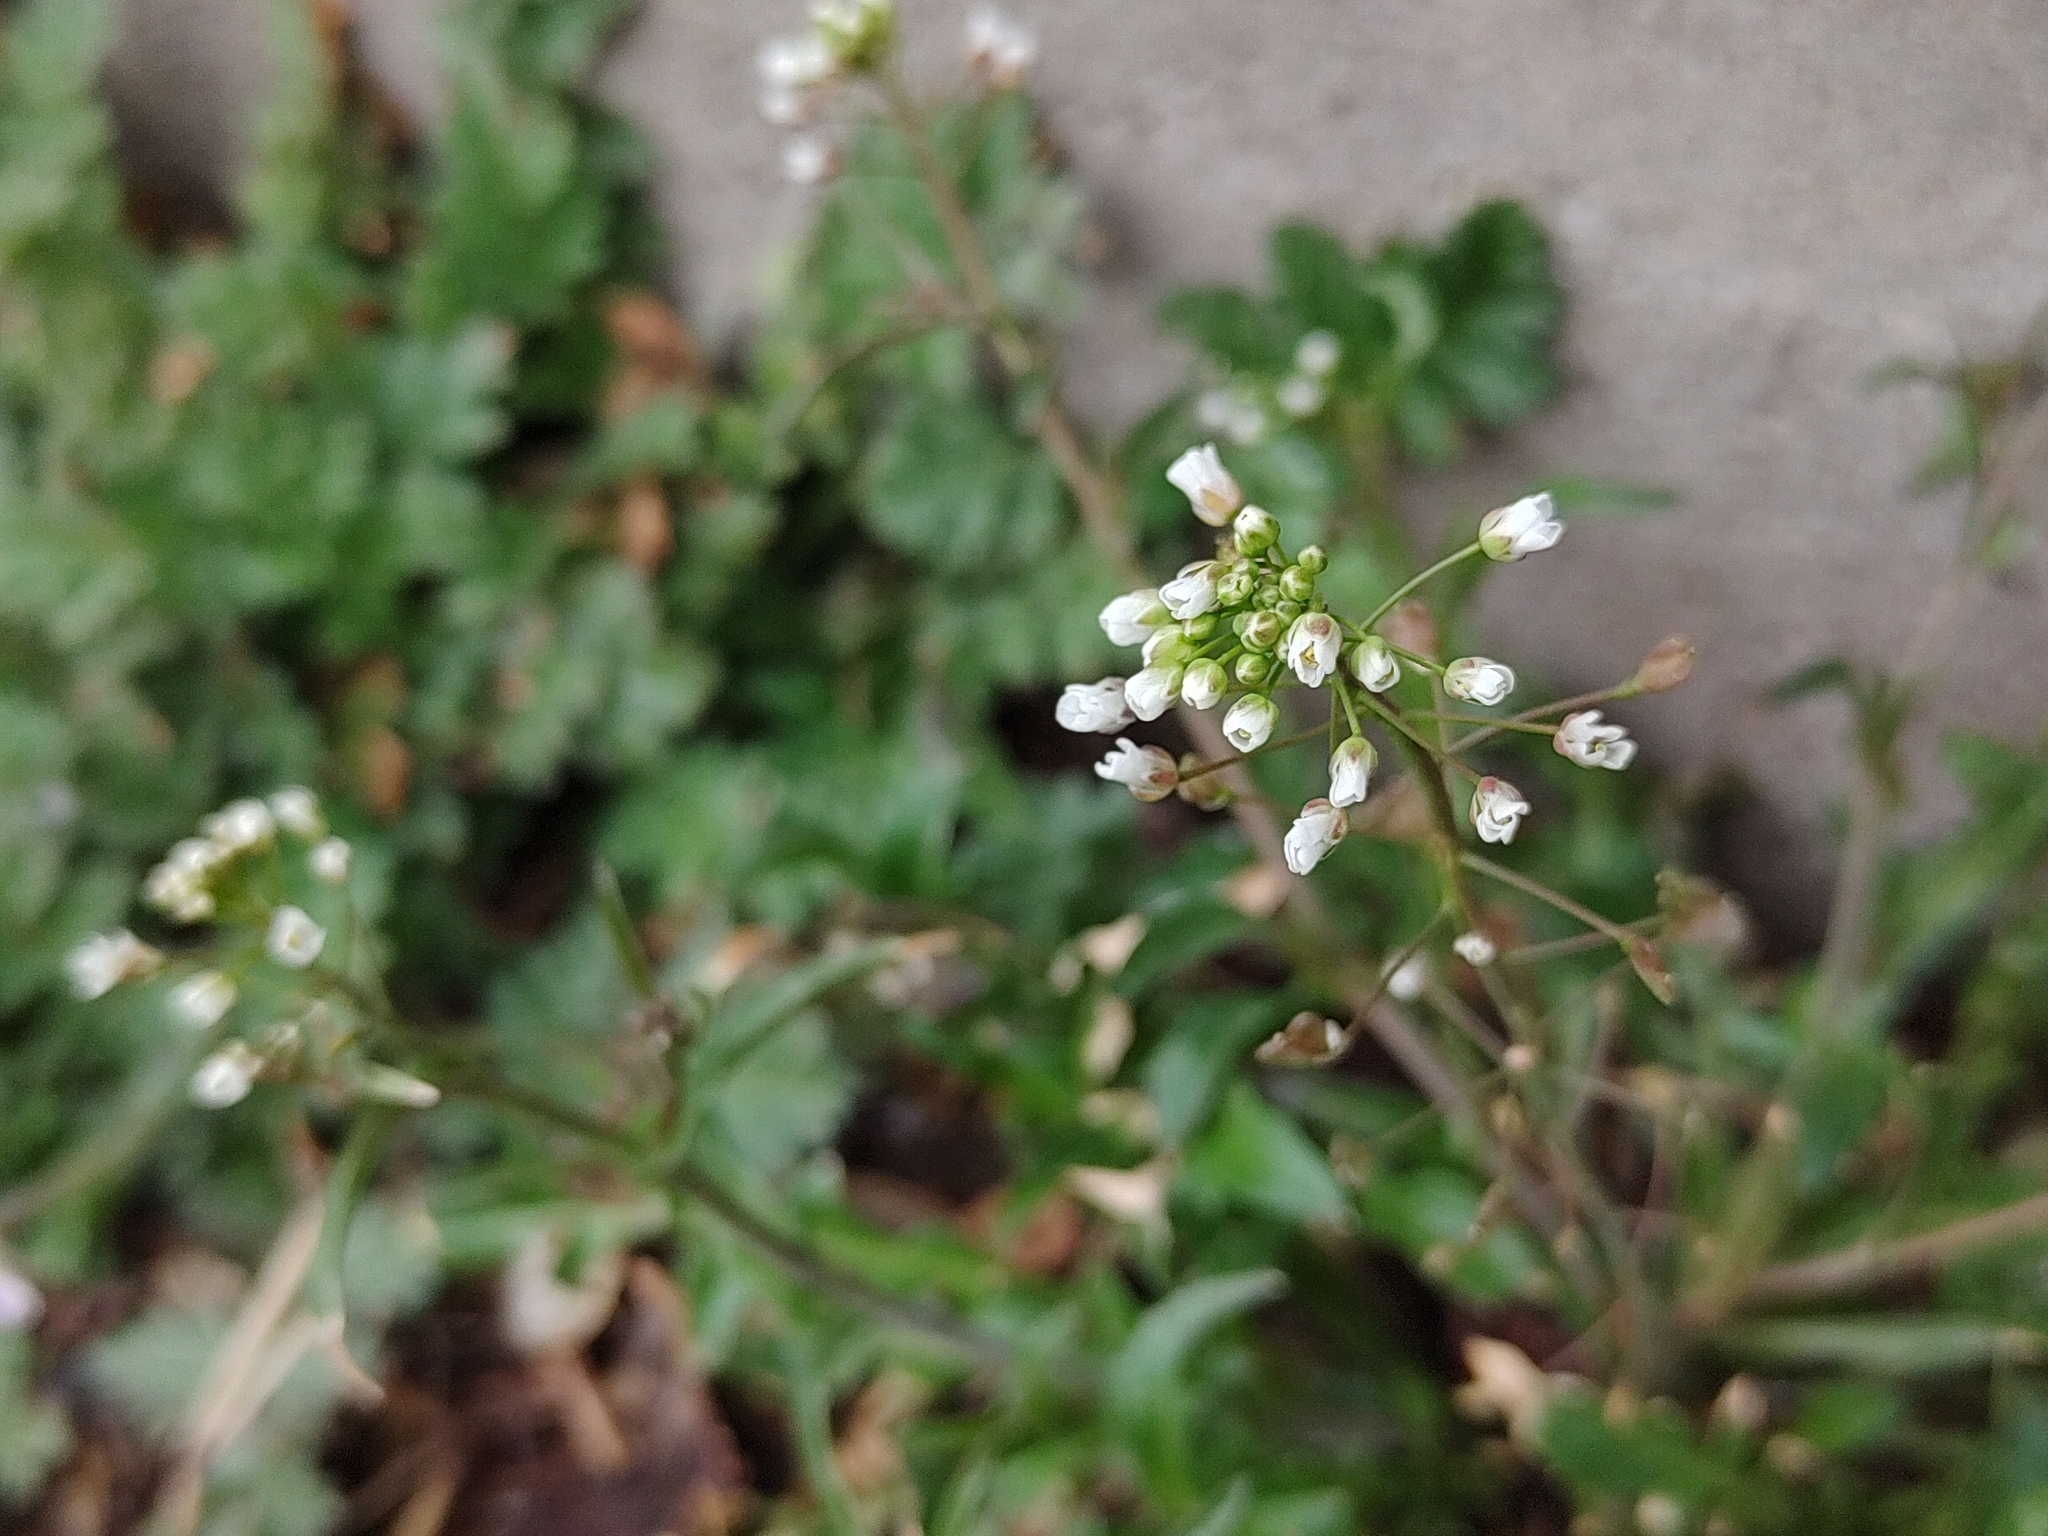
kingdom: Plantae
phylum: Tracheophyta
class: Magnoliopsida
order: Brassicales
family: Brassicaceae
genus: Capsella
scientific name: Capsella bursa-pastoris
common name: Shepherd's purse
